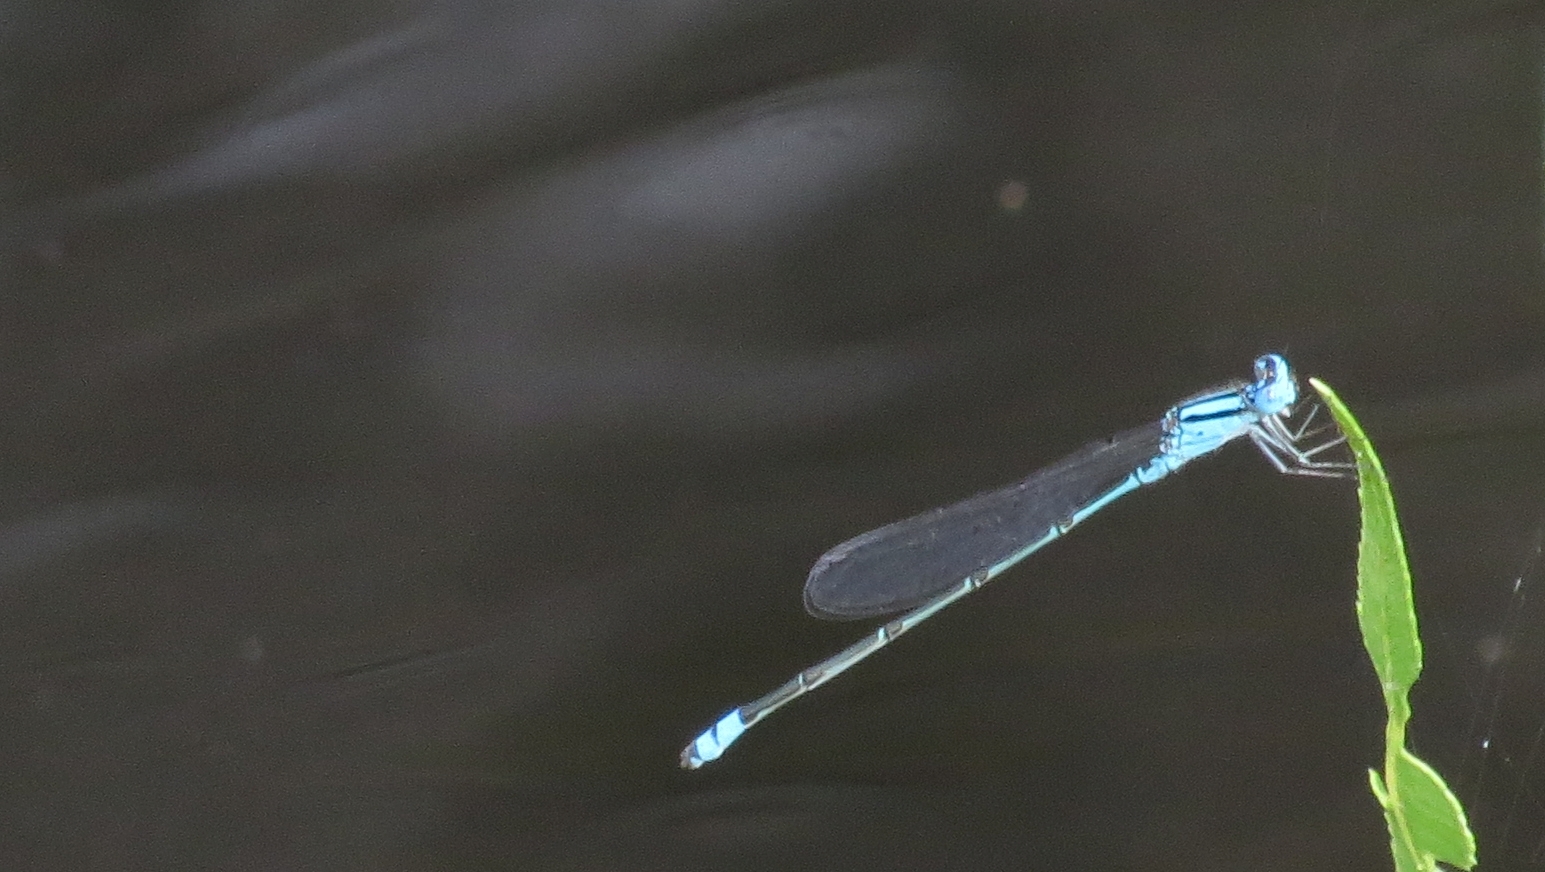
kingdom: Animalia
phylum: Arthropoda
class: Insecta
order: Odonata
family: Coenagrionidae
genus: Pseudagrion
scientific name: Pseudagrion microcephalum
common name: Blue riverdamsel
